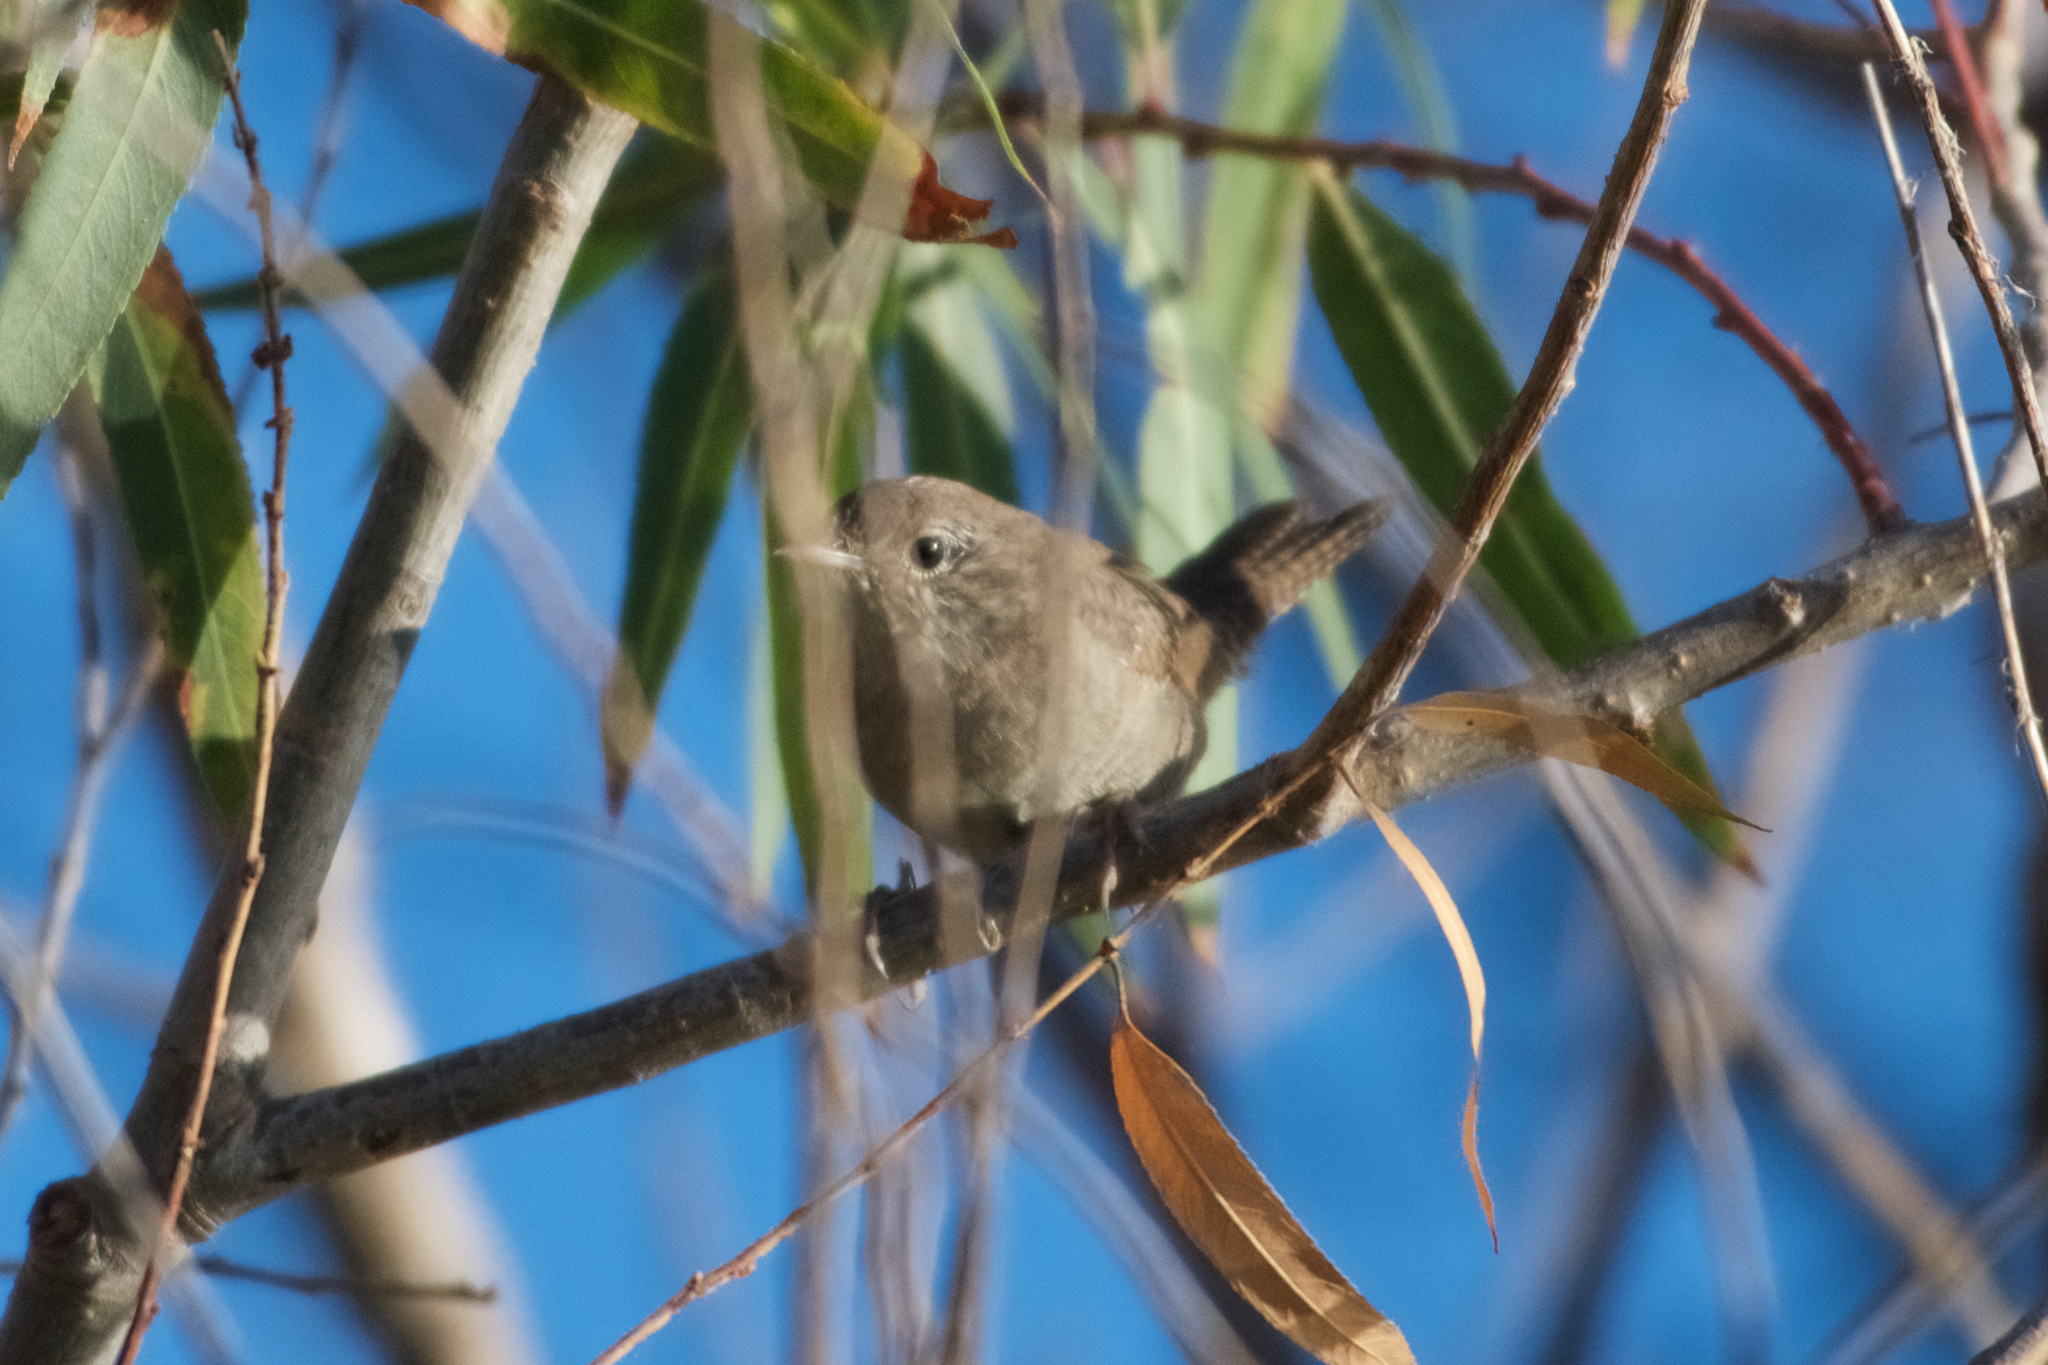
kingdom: Animalia
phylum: Chordata
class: Aves
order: Passeriformes
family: Troglodytidae
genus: Troglodytes
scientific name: Troglodytes aedon
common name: House wren
